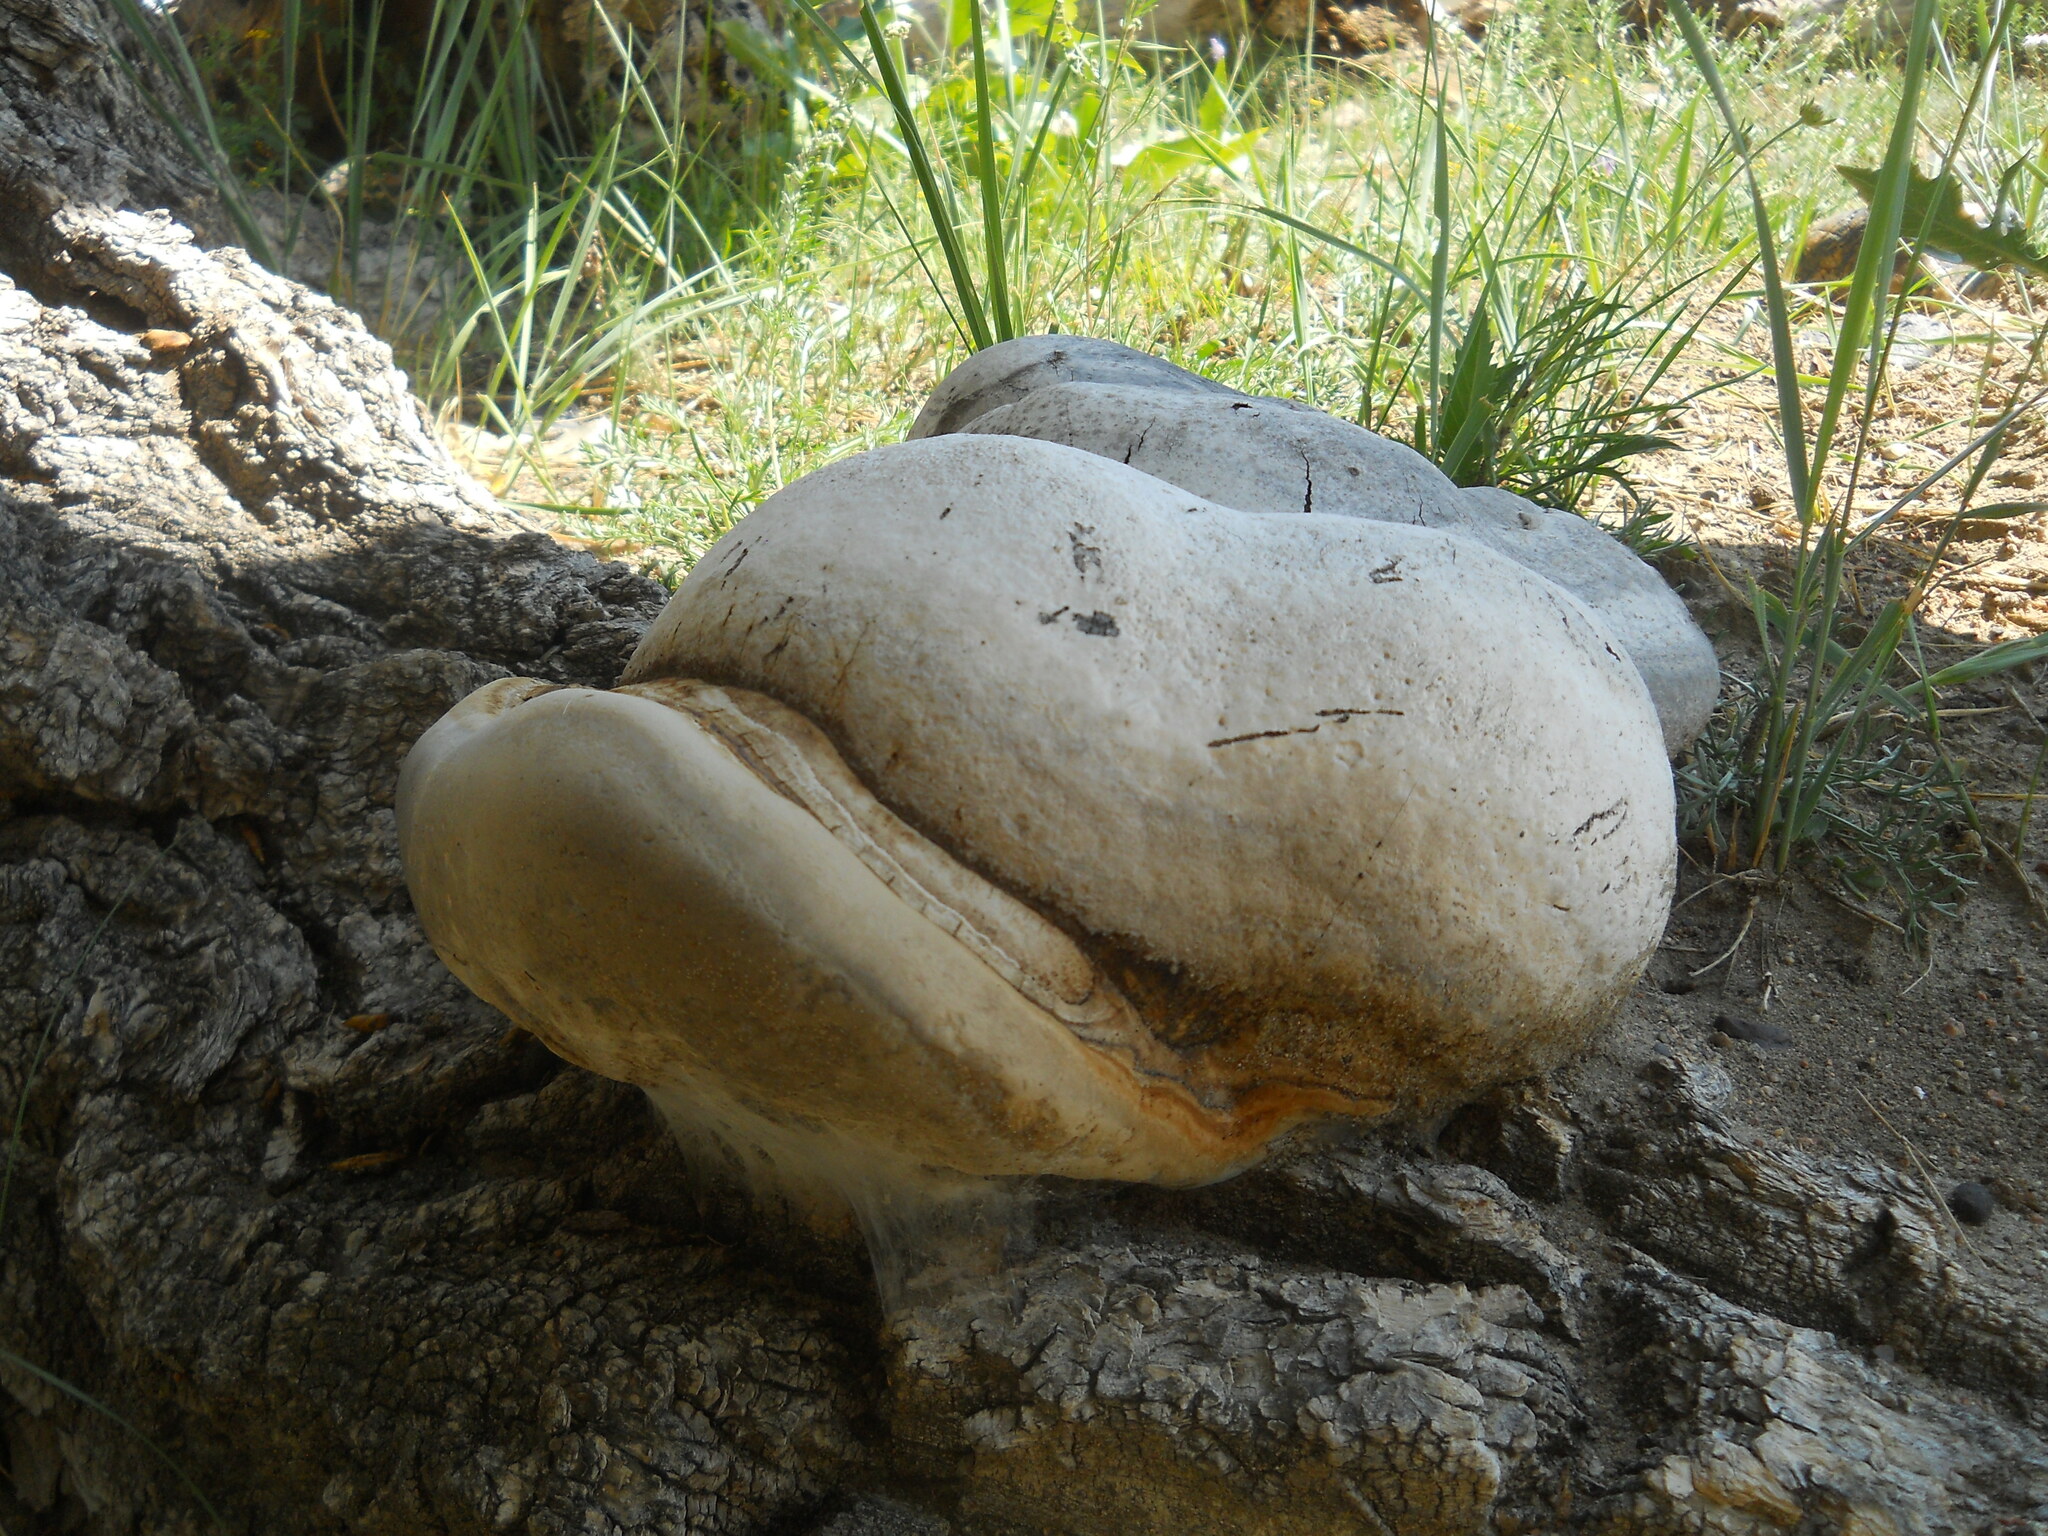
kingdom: Fungi
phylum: Basidiomycota
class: Agaricomycetes
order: Polyporales
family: Polyporaceae
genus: Fomes
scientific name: Fomes fomentarius
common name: Hoof fungus
